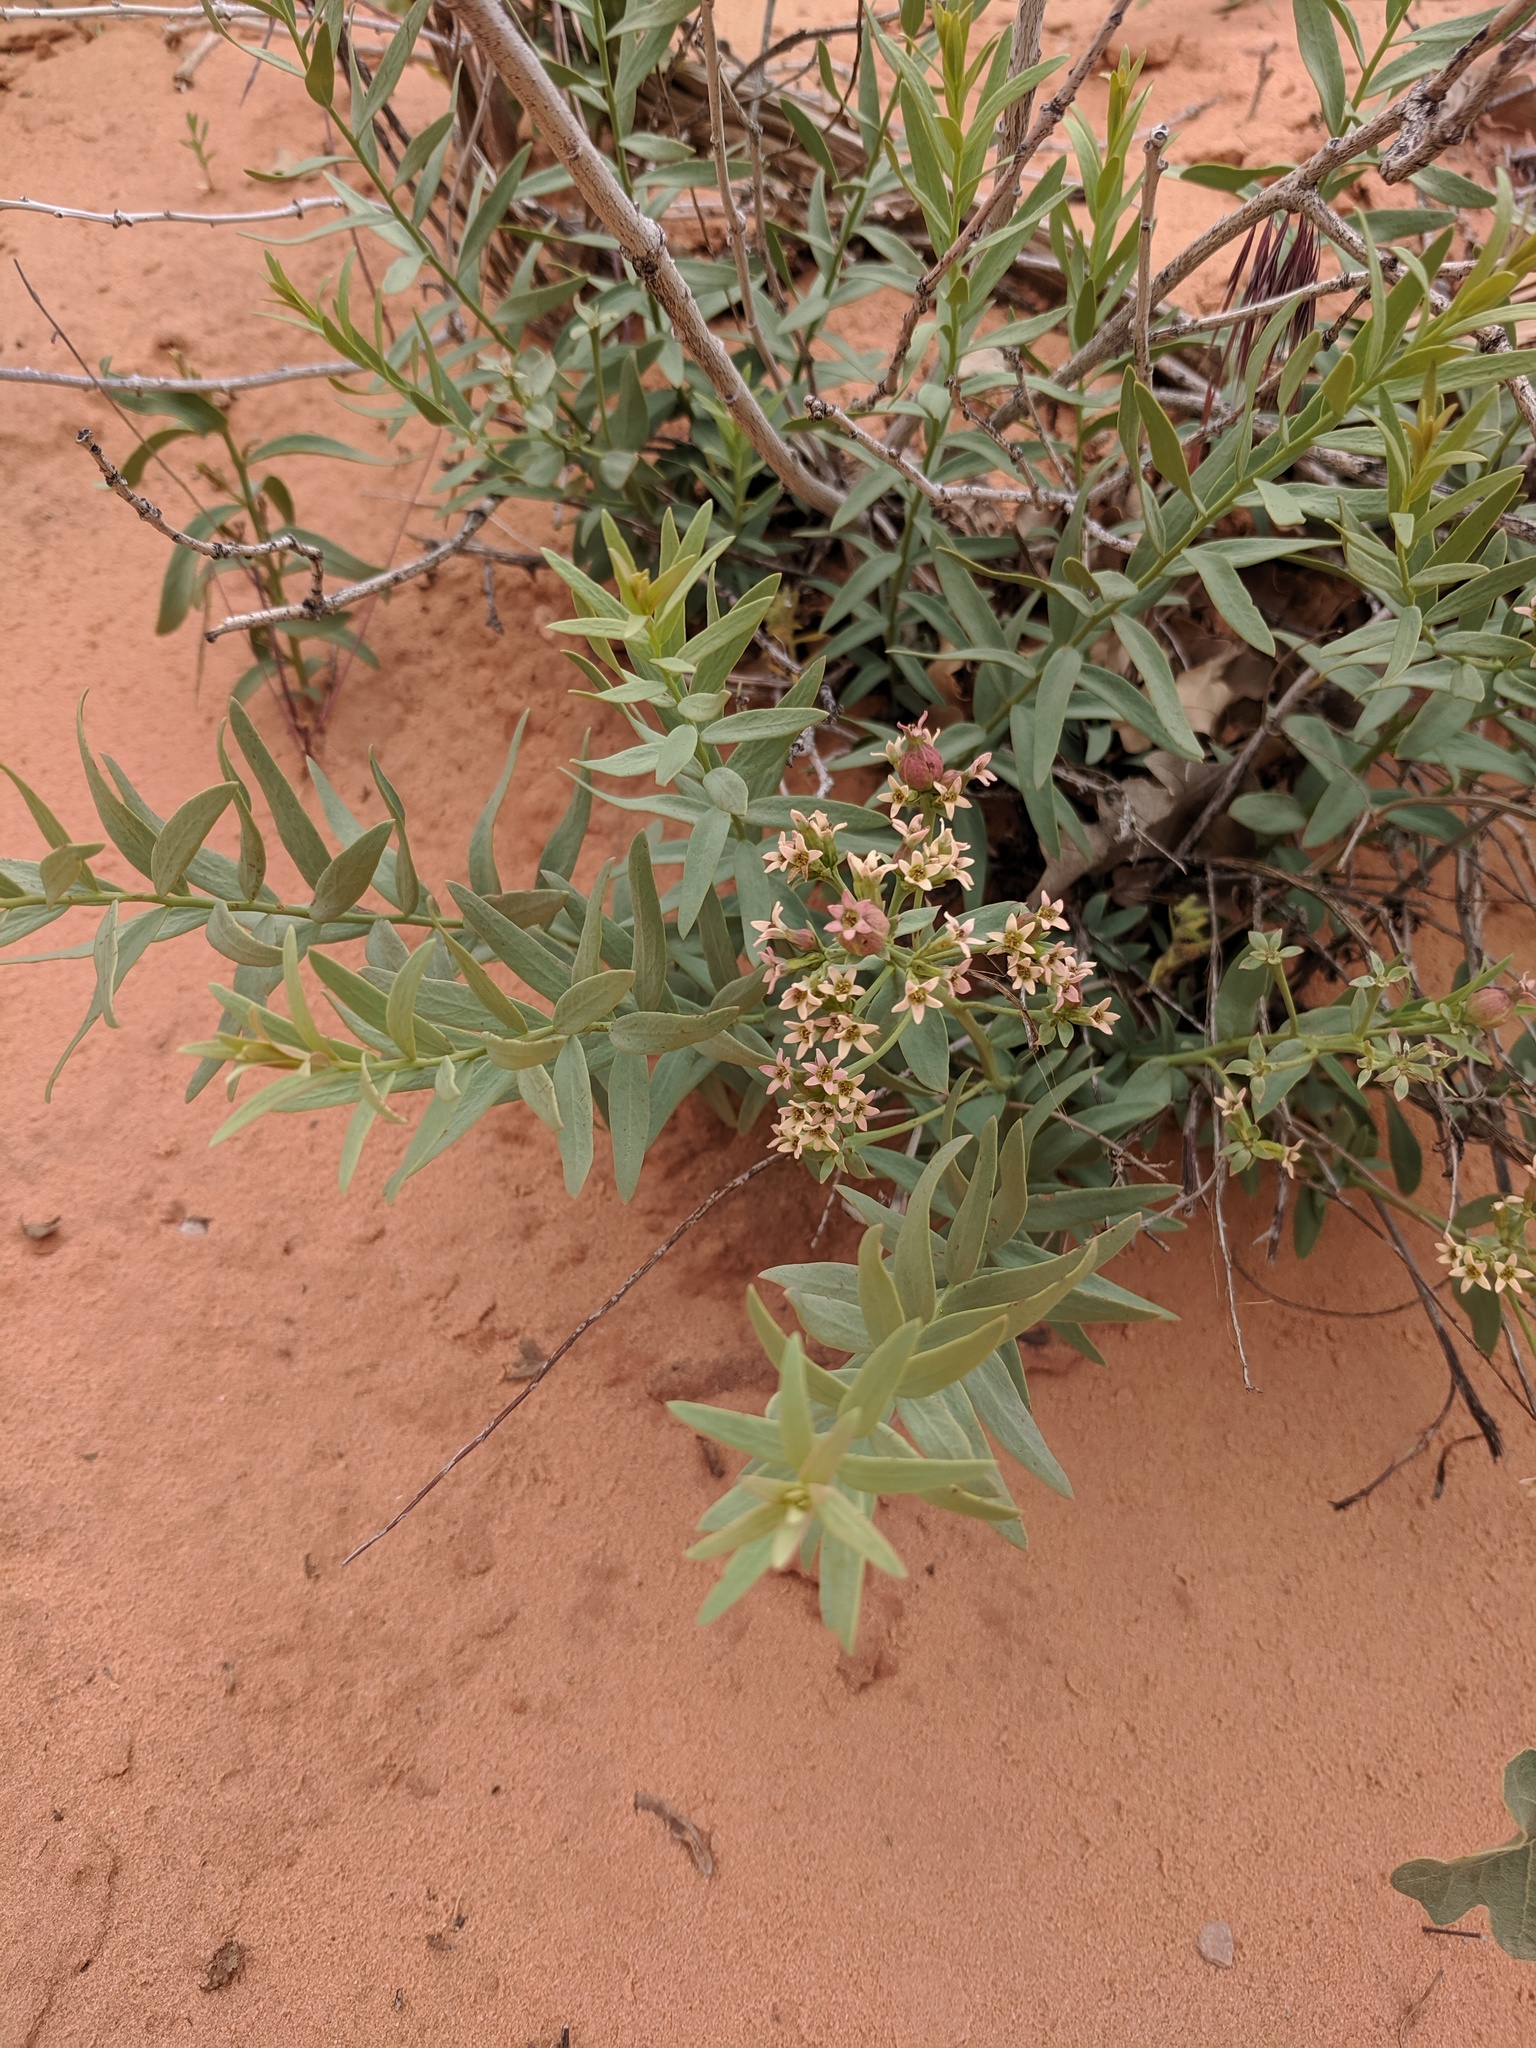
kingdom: Plantae
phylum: Tracheophyta
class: Magnoliopsida
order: Santalales
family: Comandraceae
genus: Comandra
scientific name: Comandra umbellata
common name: Bastard toadflax
